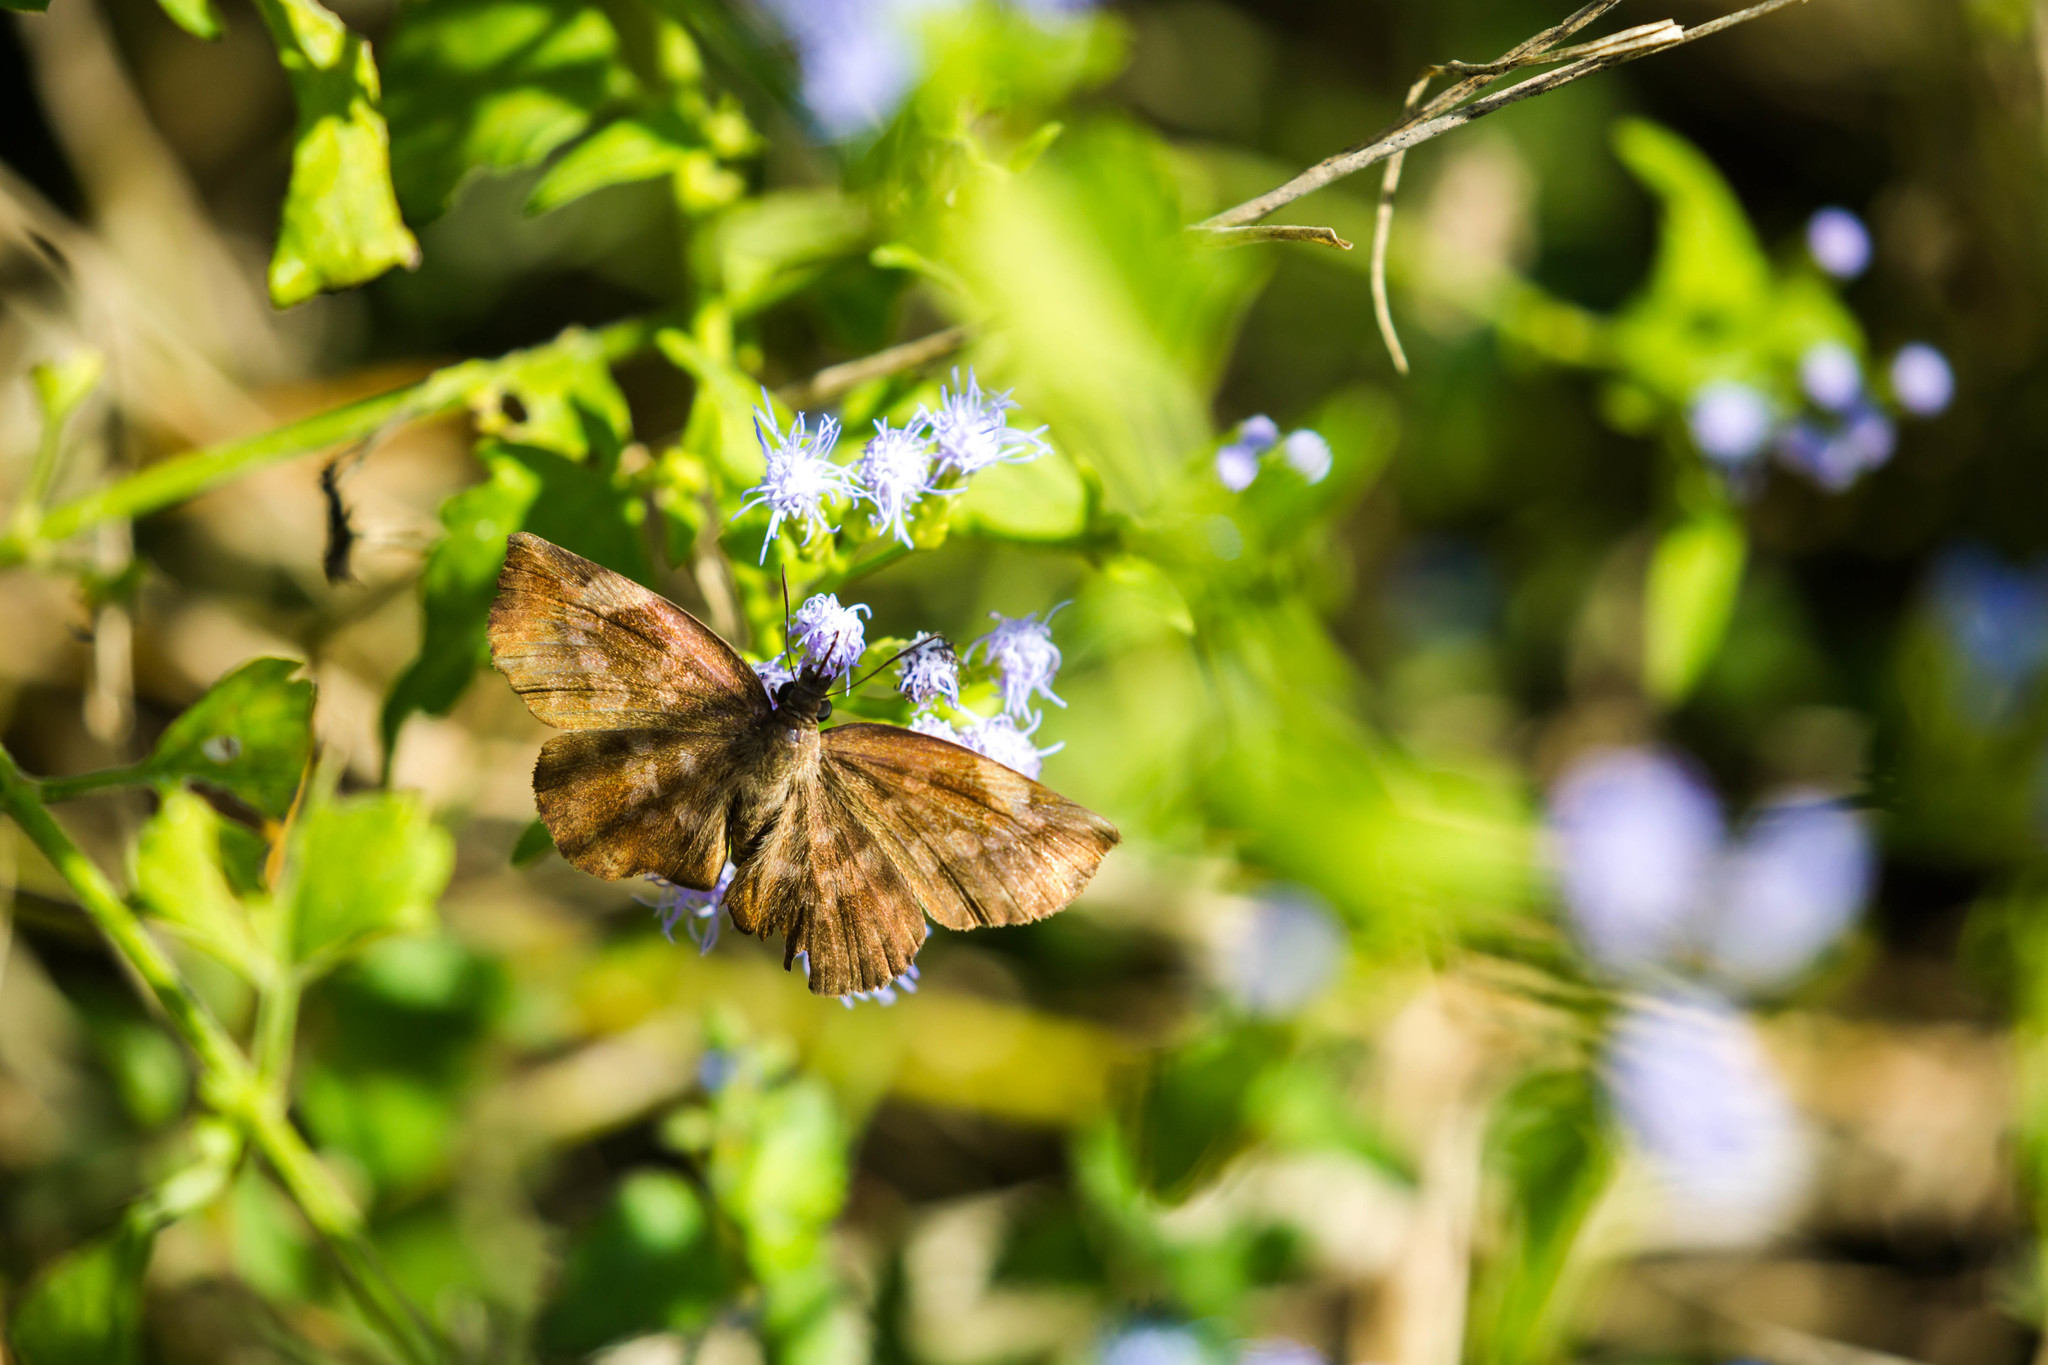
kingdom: Animalia
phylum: Arthropoda
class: Insecta
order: Lepidoptera
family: Hesperiidae
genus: Achlyodes
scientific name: Achlyodes thraso
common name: Sickle-winged skipper
